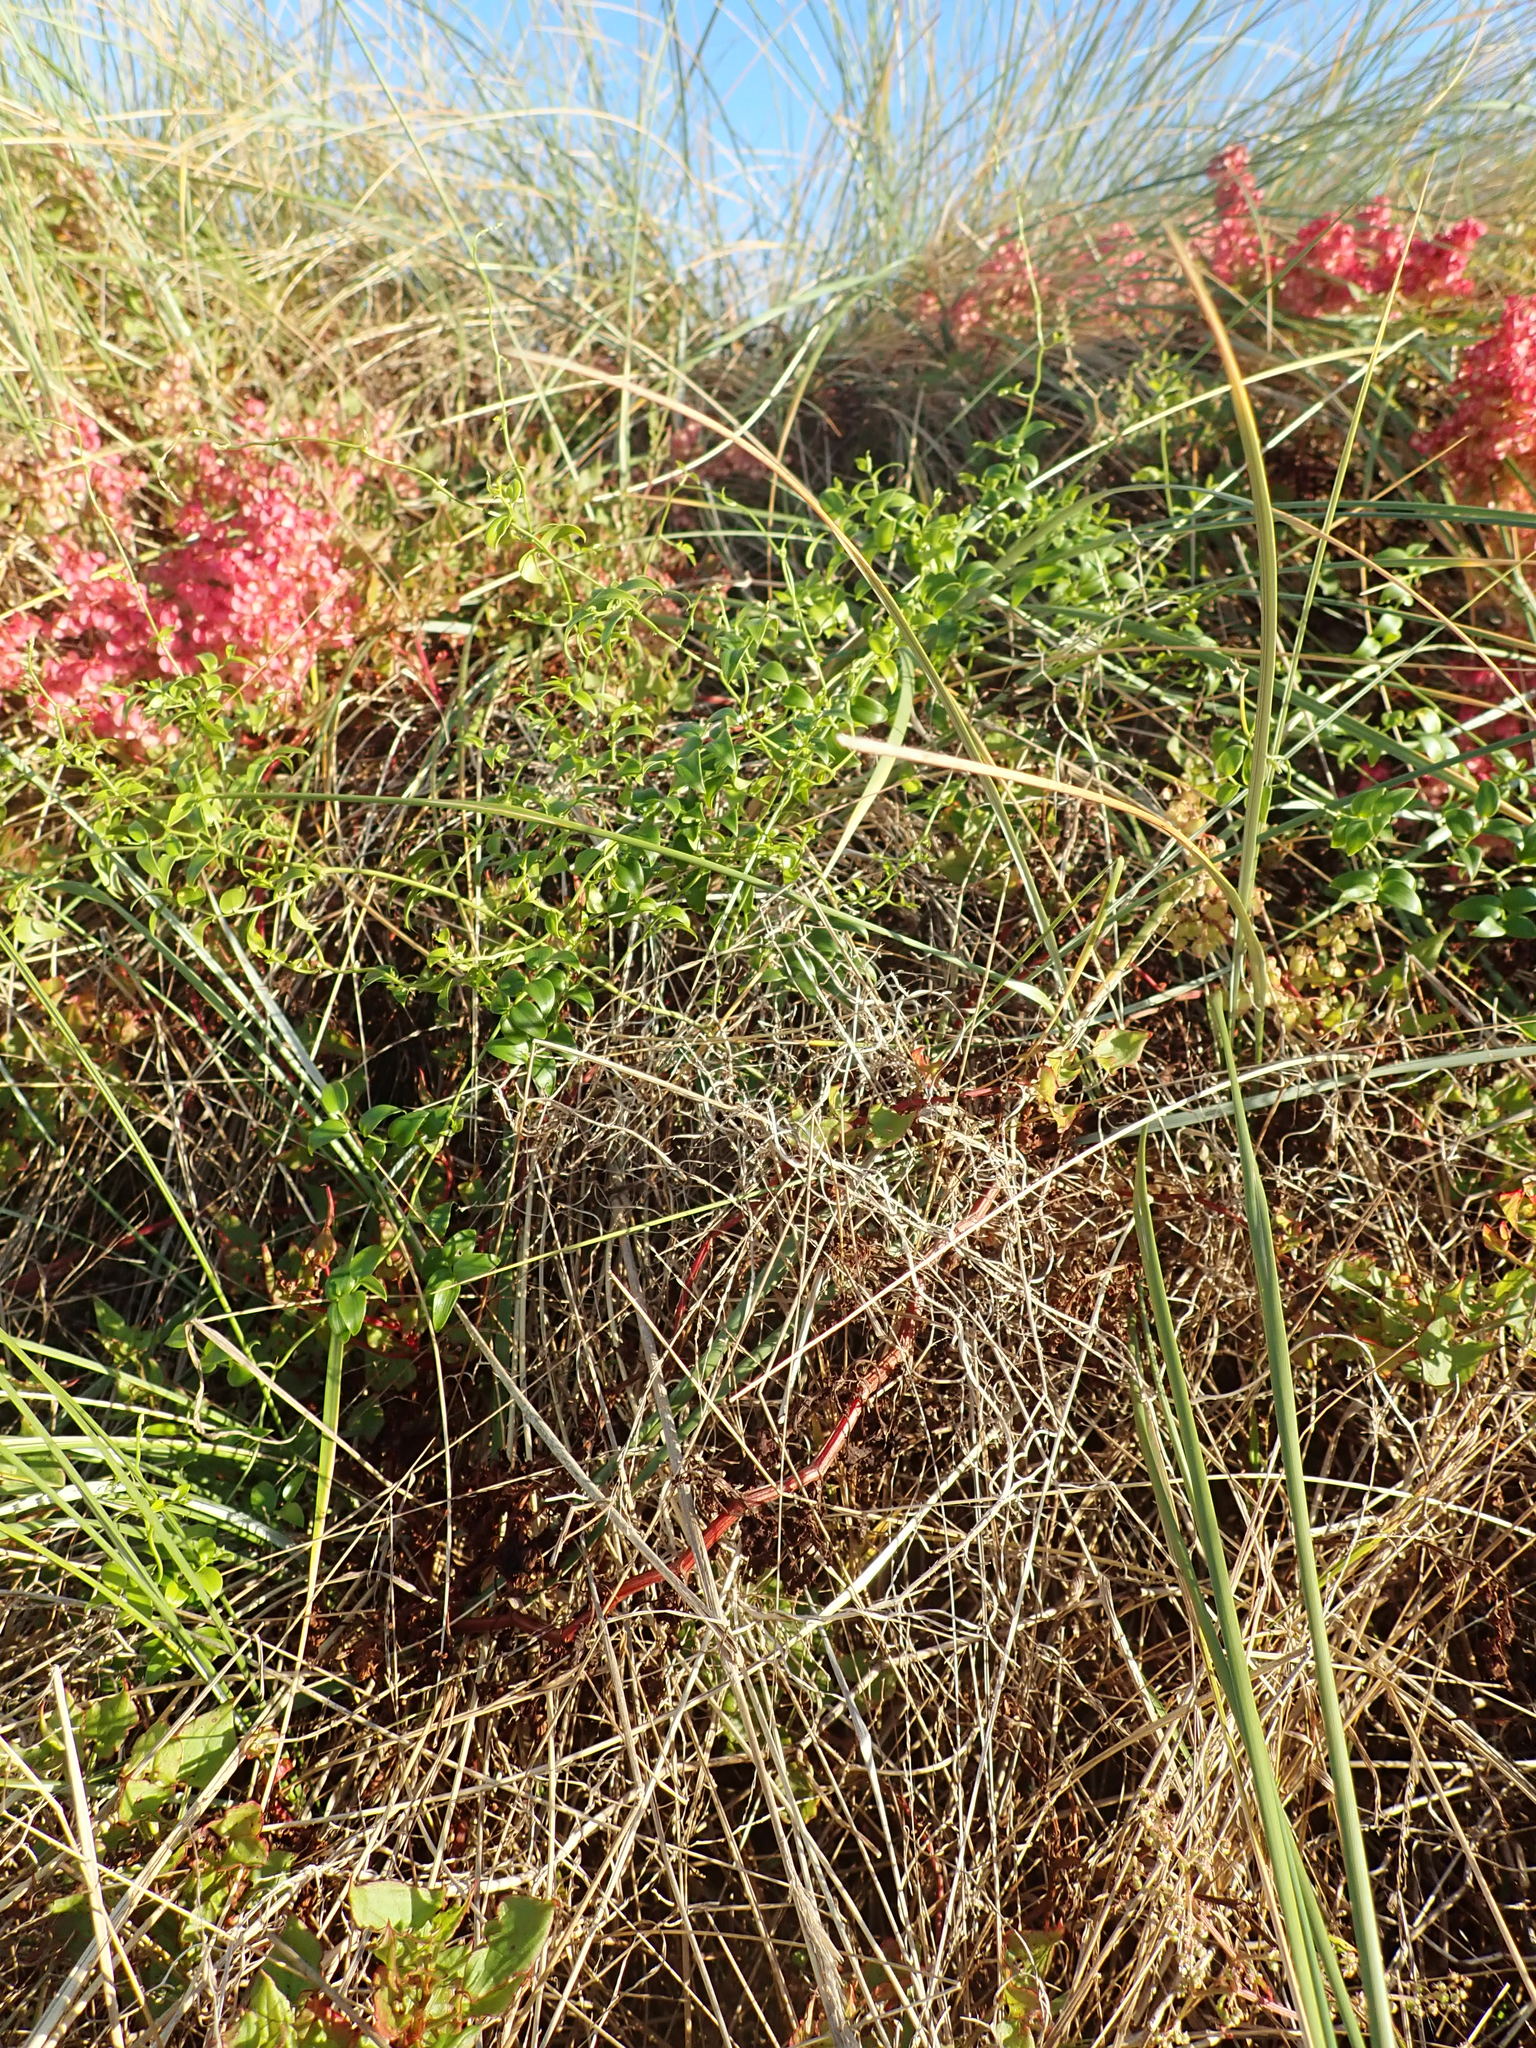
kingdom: Plantae
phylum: Tracheophyta
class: Magnoliopsida
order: Caryophyllales
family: Polygonaceae
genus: Rumex
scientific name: Rumex sagittatus
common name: Climbing dock
